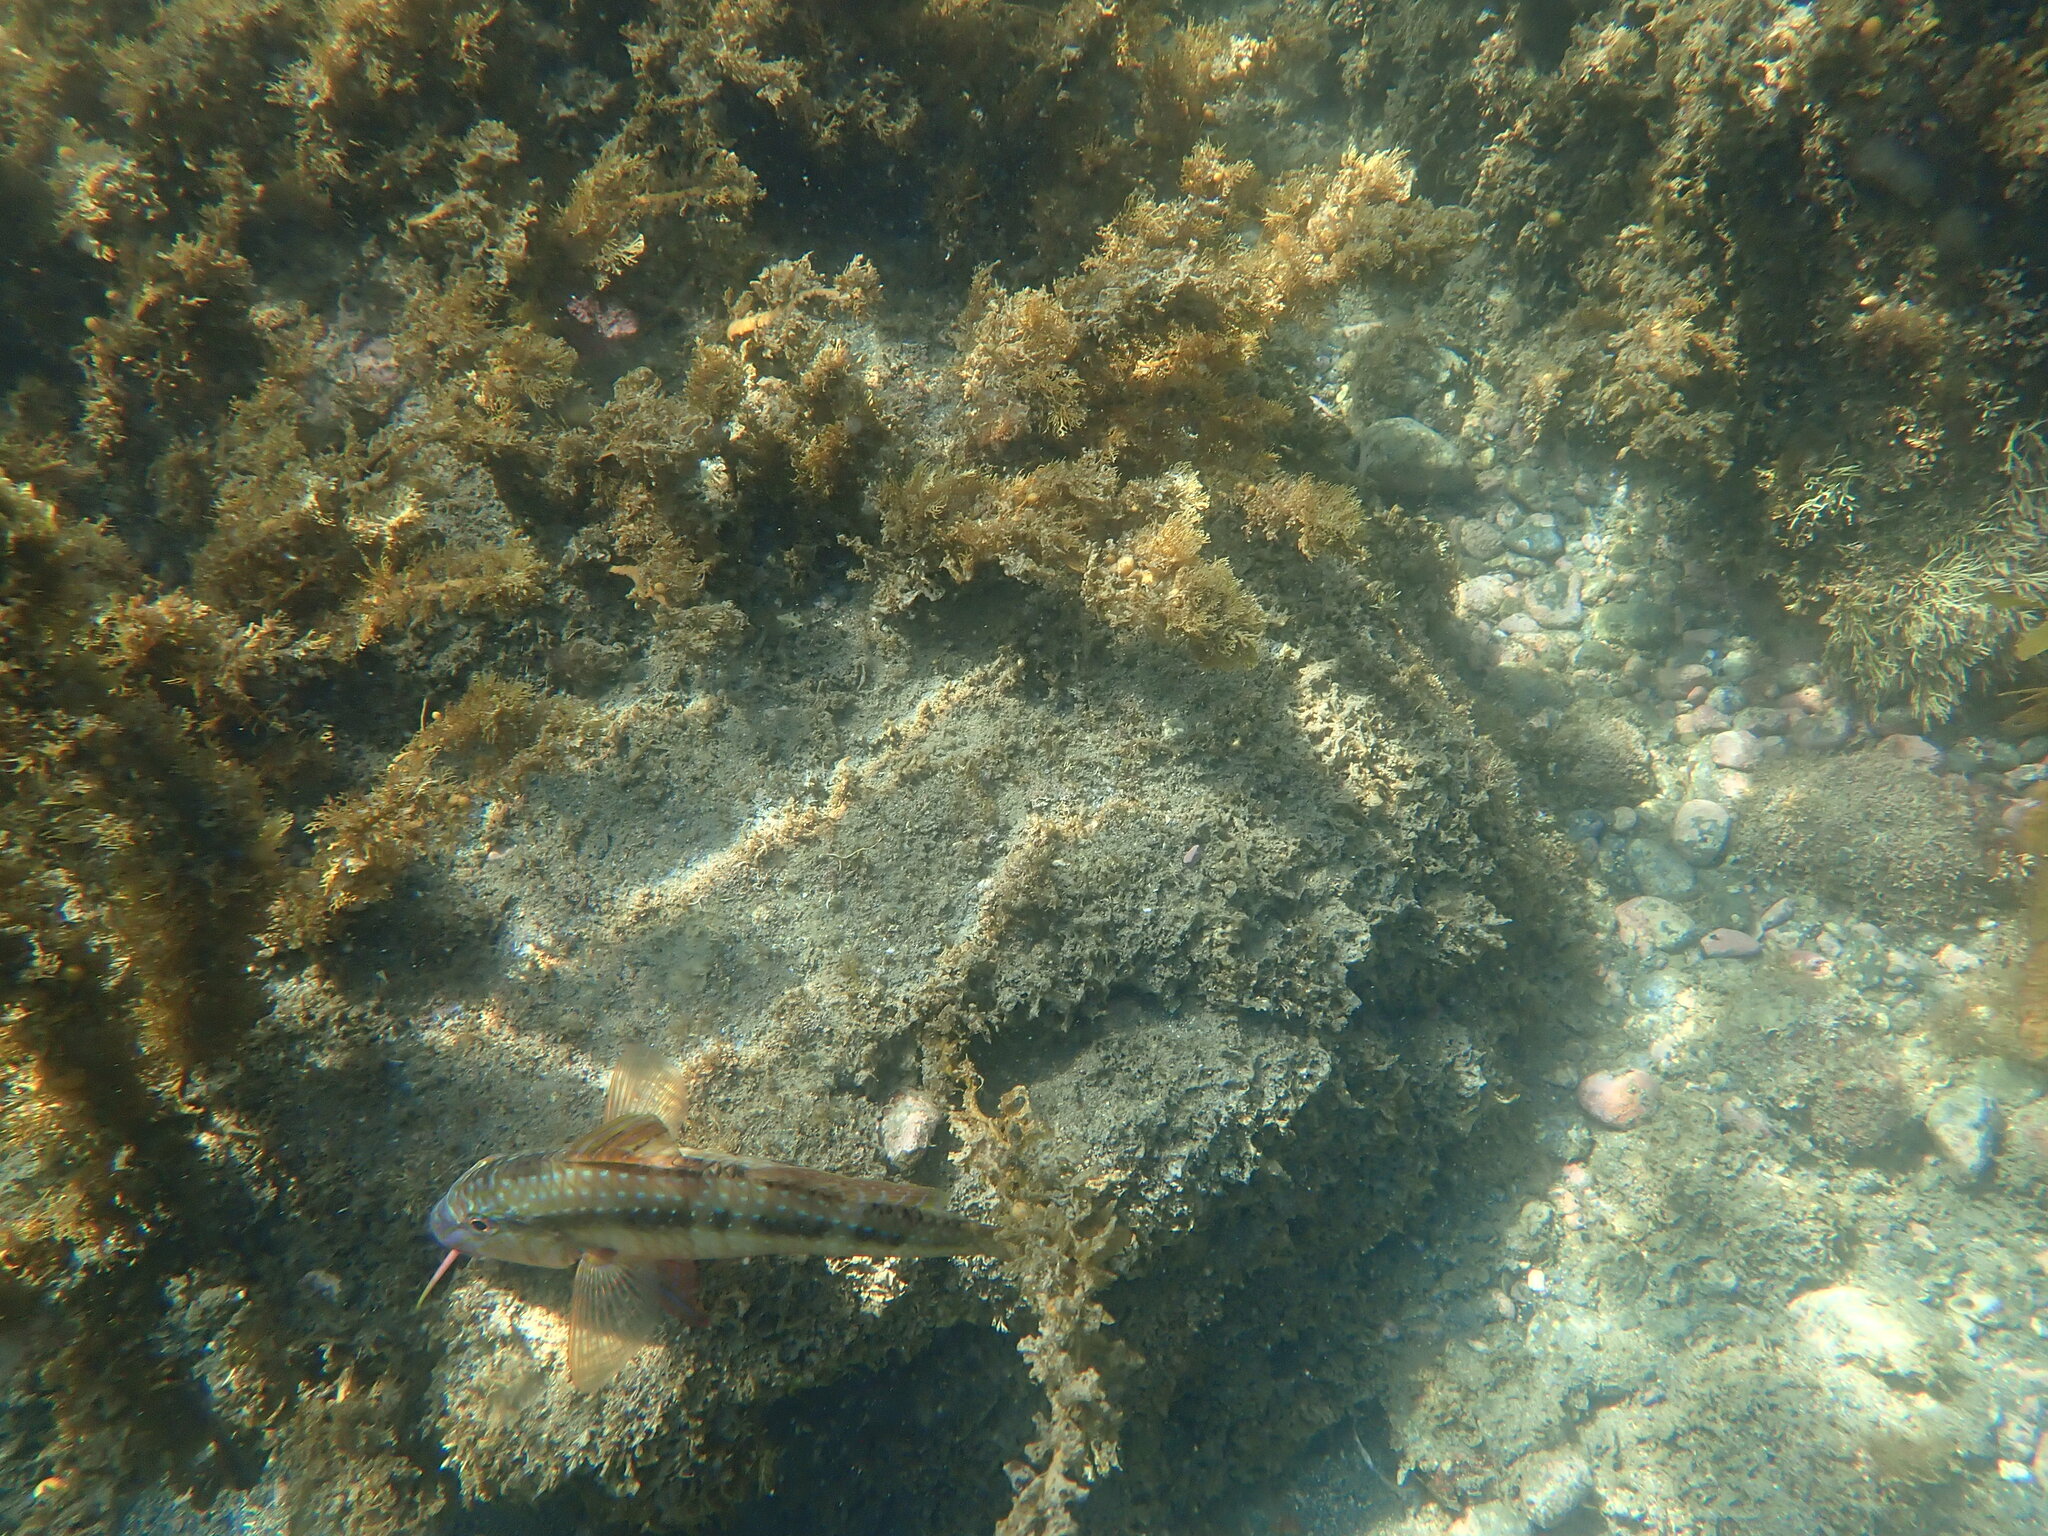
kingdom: Animalia
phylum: Chordata
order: Perciformes
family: Mullidae
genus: Upeneichthys
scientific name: Upeneichthys lineatus
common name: Red mullet
